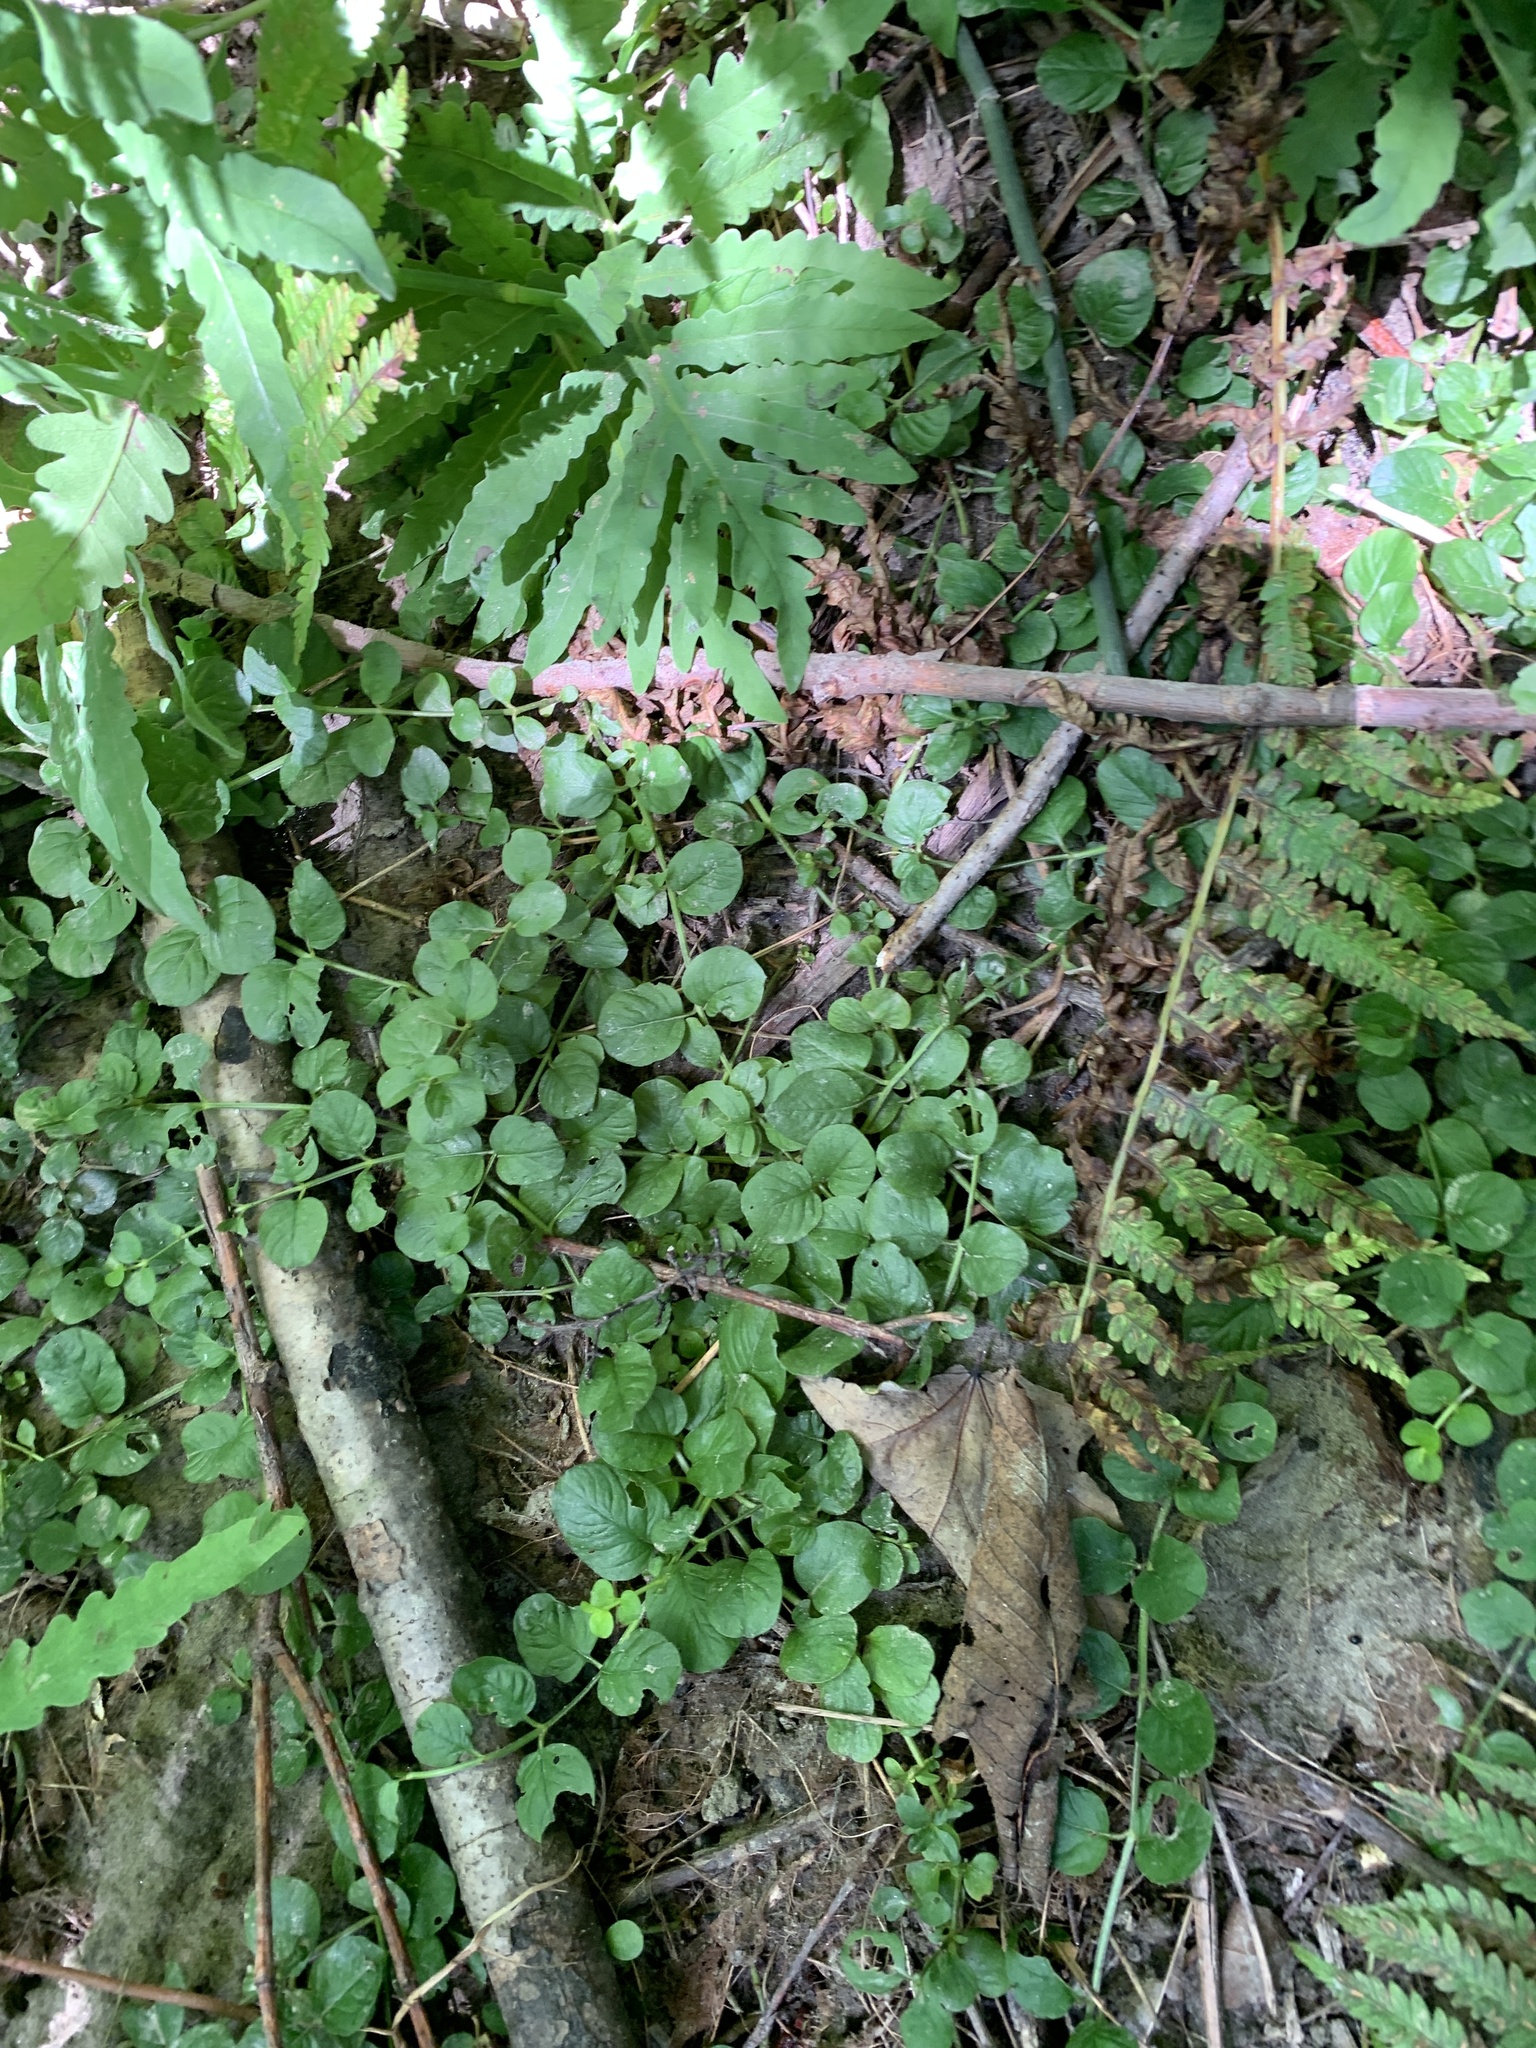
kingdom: Plantae
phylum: Tracheophyta
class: Magnoliopsida
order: Ericales
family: Primulaceae
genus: Lysimachia
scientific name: Lysimachia nummularia
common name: Moneywort
